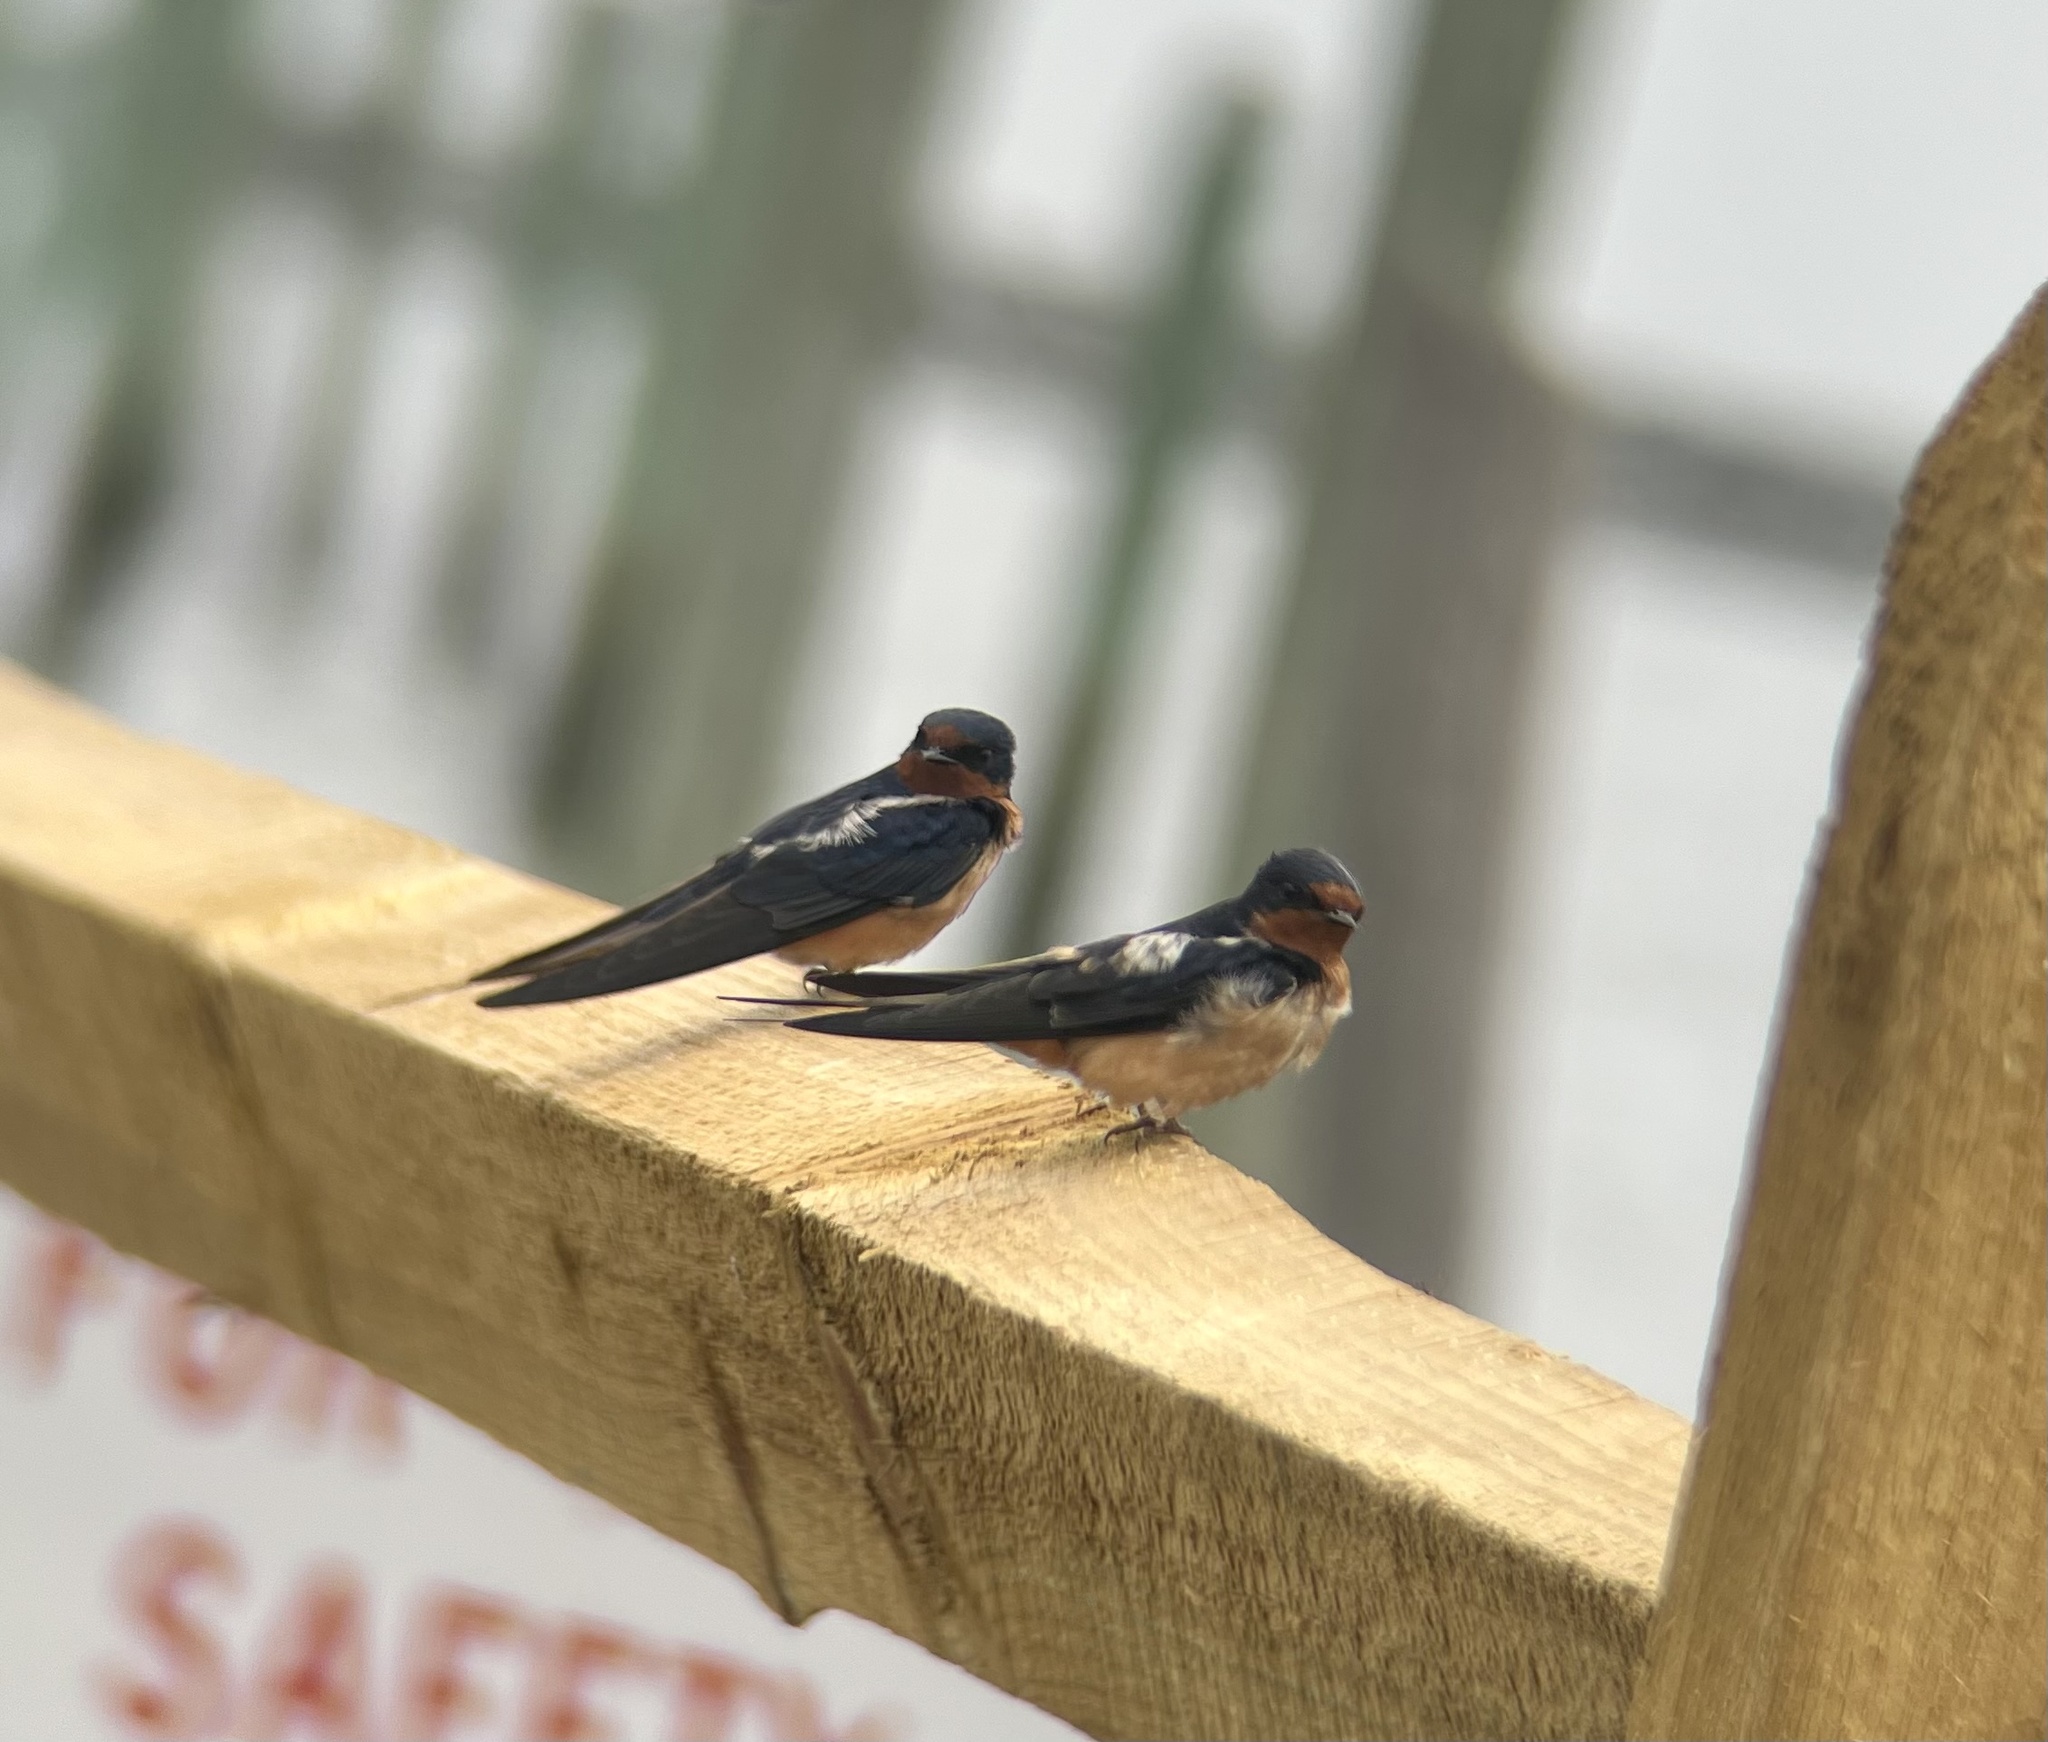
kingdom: Animalia
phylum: Chordata
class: Aves
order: Passeriformes
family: Hirundinidae
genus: Hirundo
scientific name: Hirundo rustica
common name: Barn swallow
